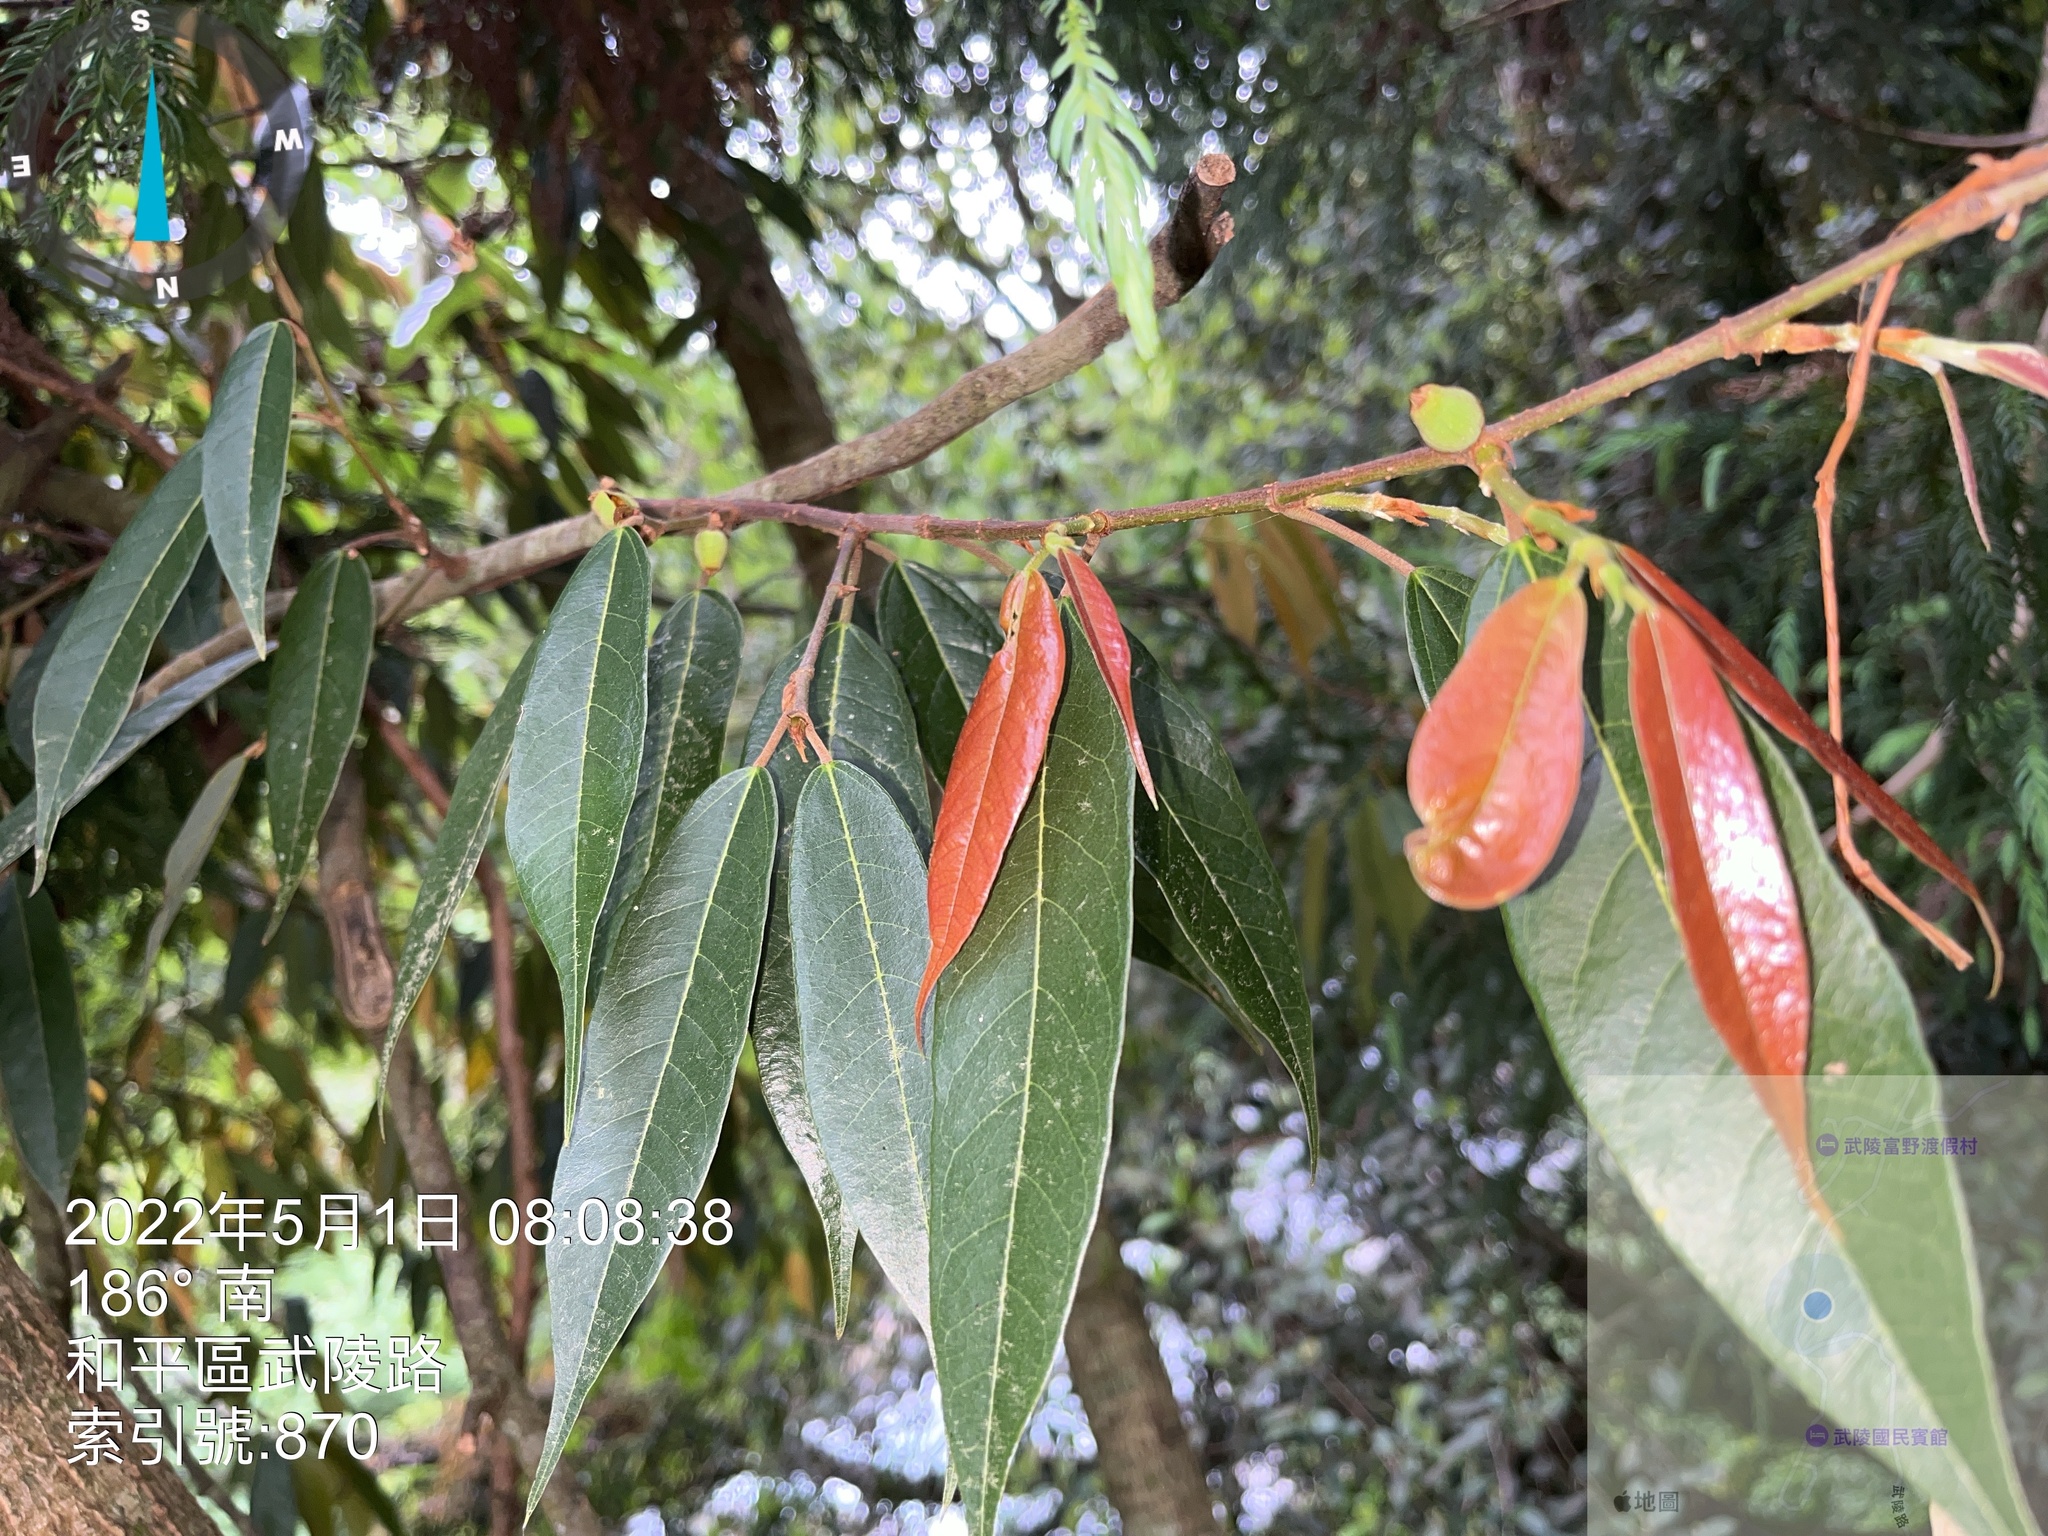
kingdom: Plantae
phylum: Tracheophyta
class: Magnoliopsida
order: Rosales
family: Moraceae
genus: Ficus
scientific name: Ficus sarmentosa
